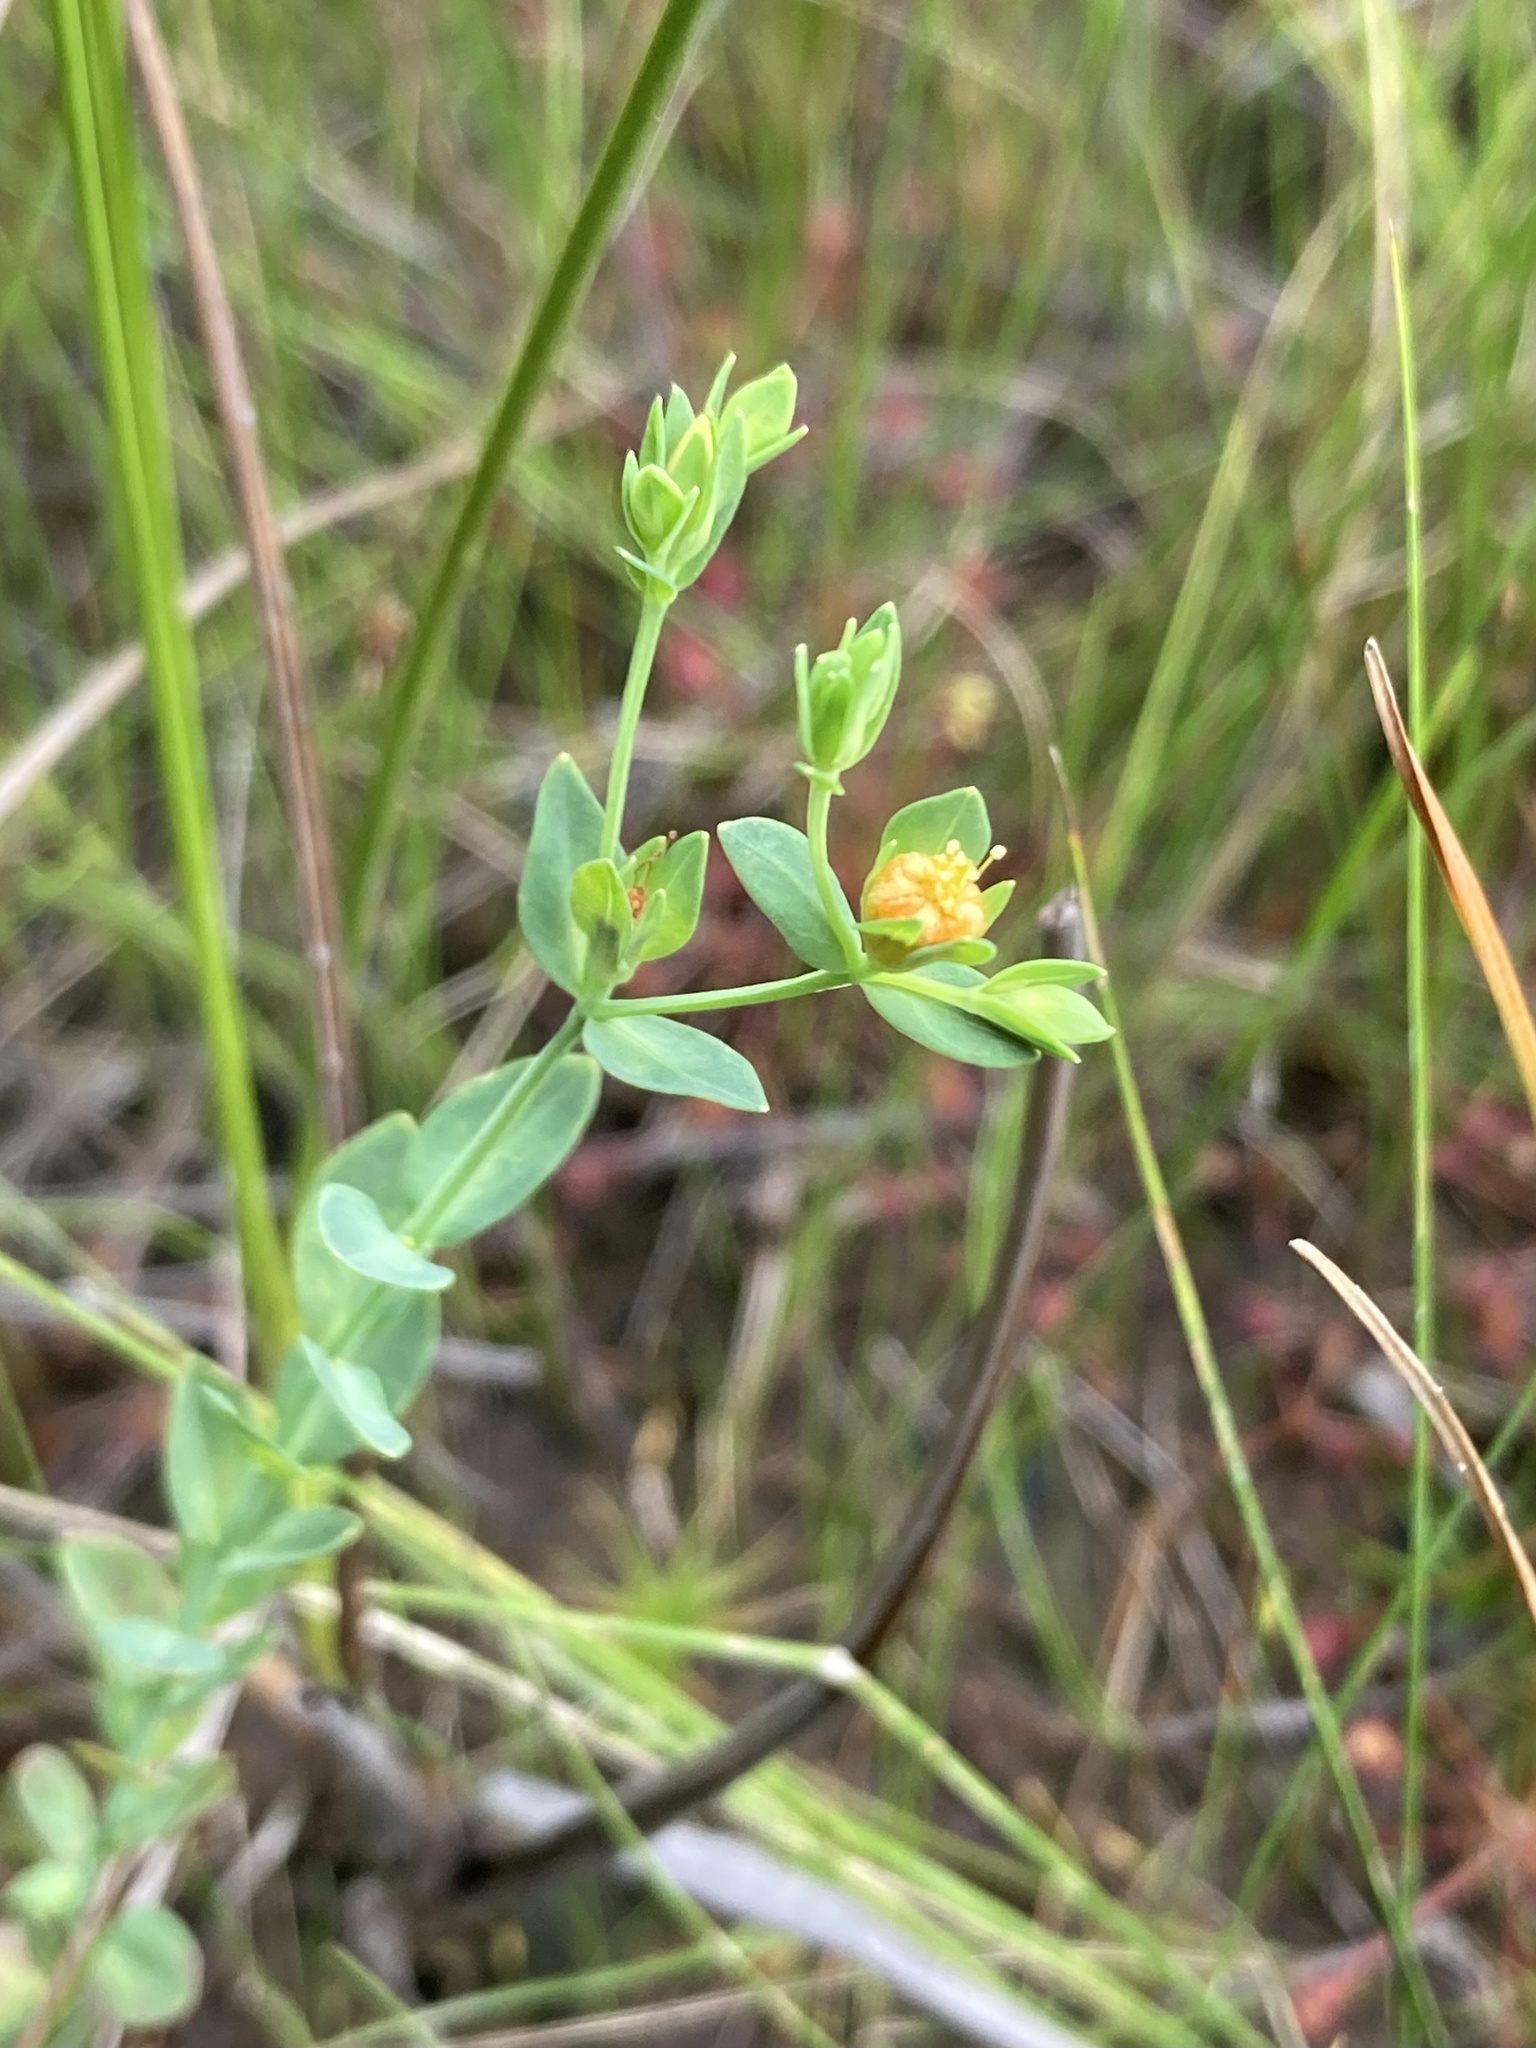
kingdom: Plantae
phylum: Tracheophyta
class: Magnoliopsida
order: Malpighiales
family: Hypericaceae
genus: Hypericum
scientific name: Hypericum denticulatum
